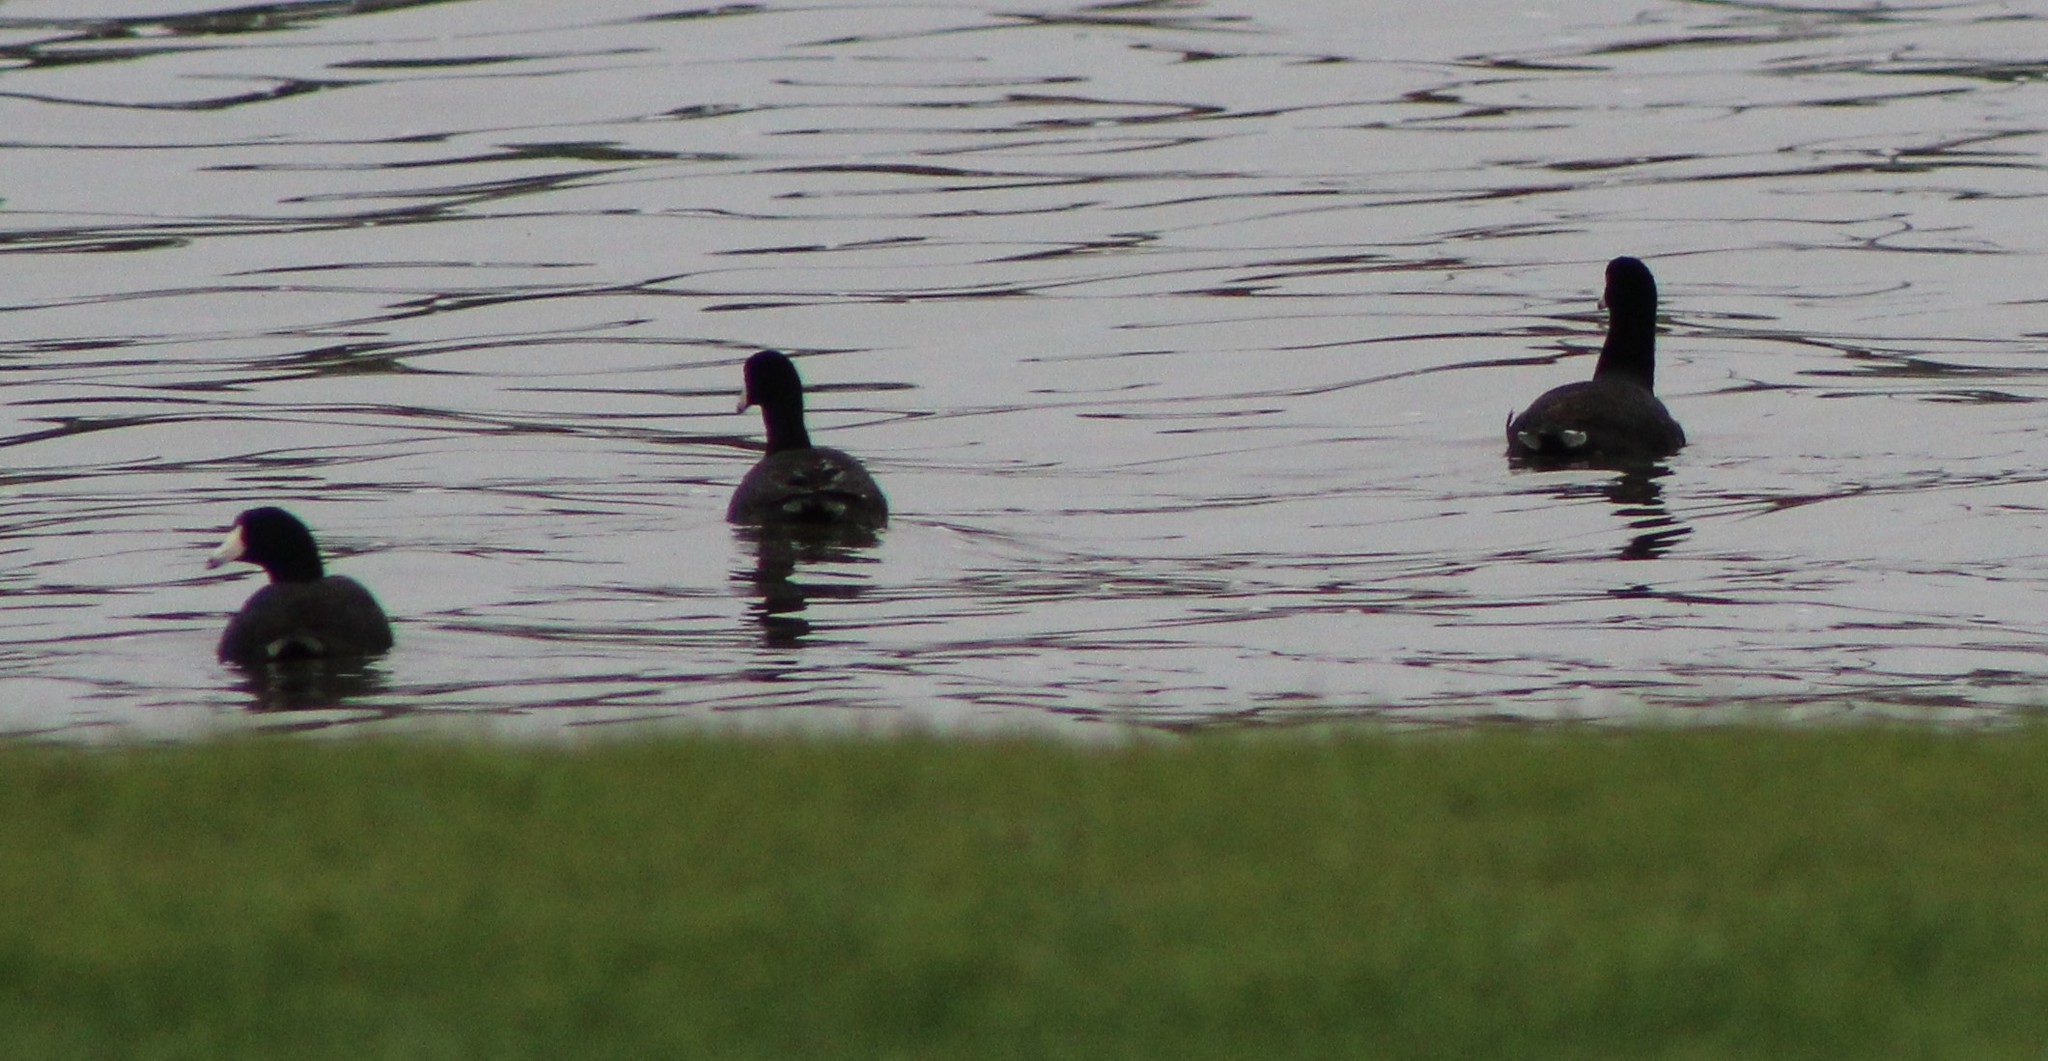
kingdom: Animalia
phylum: Chordata
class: Aves
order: Gruiformes
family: Rallidae
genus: Fulica
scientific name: Fulica americana
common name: American coot
